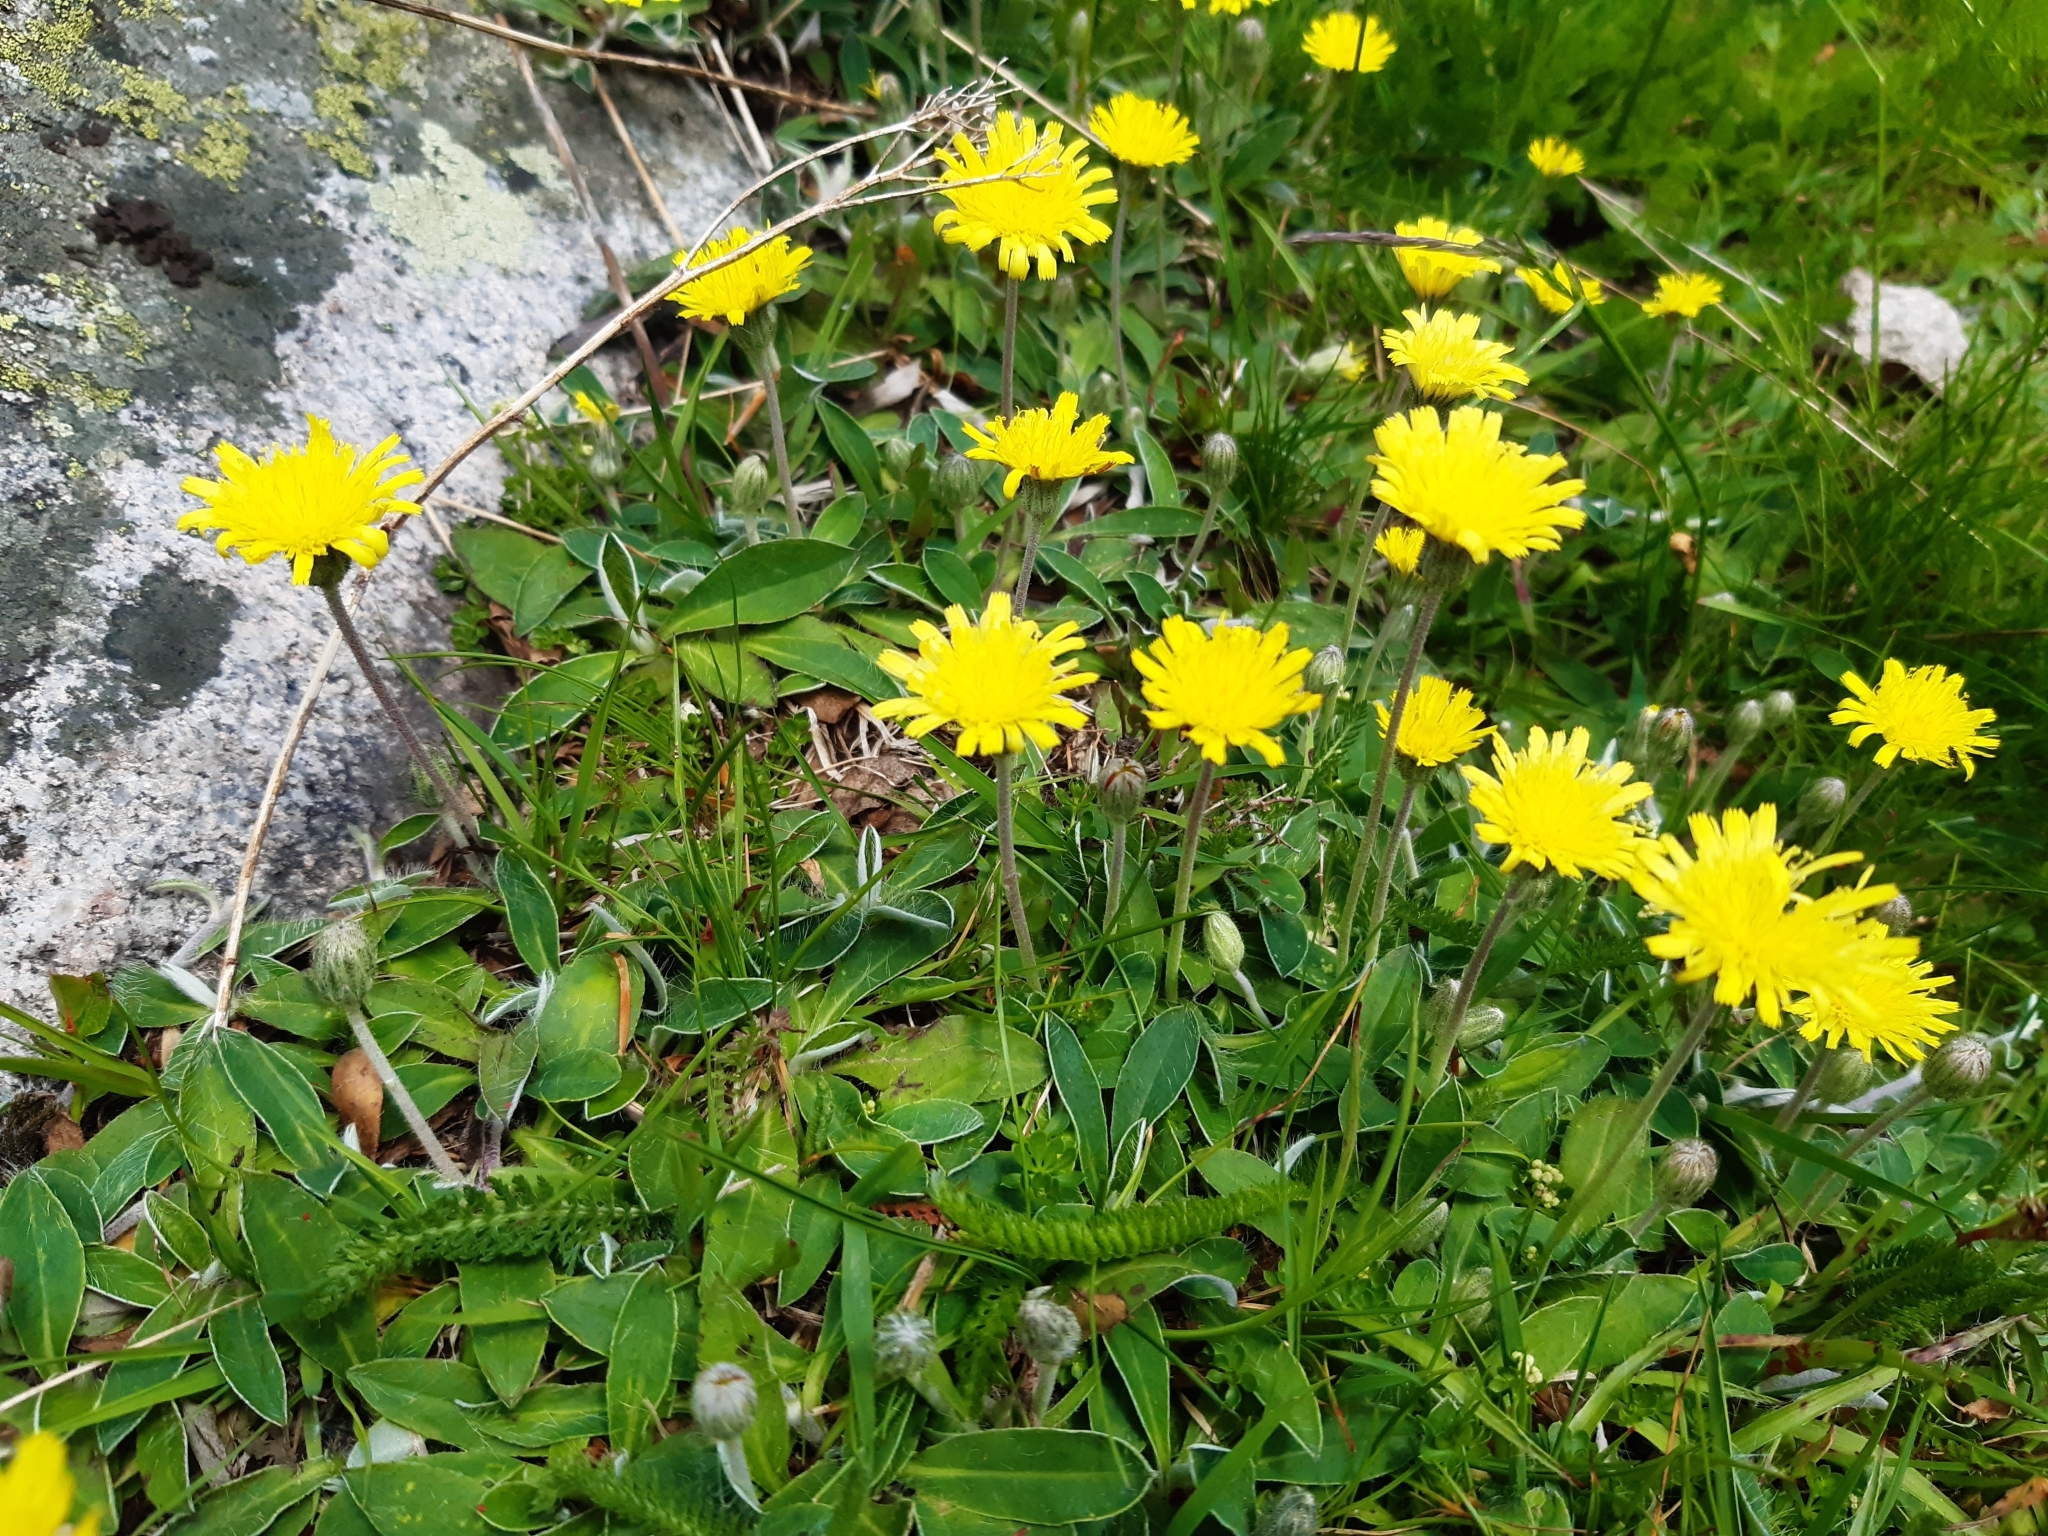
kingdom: Plantae
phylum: Tracheophyta
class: Magnoliopsida
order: Asterales
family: Asteraceae
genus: Pilosella
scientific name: Pilosella officinarum
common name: Mouse-ear hawkweed
